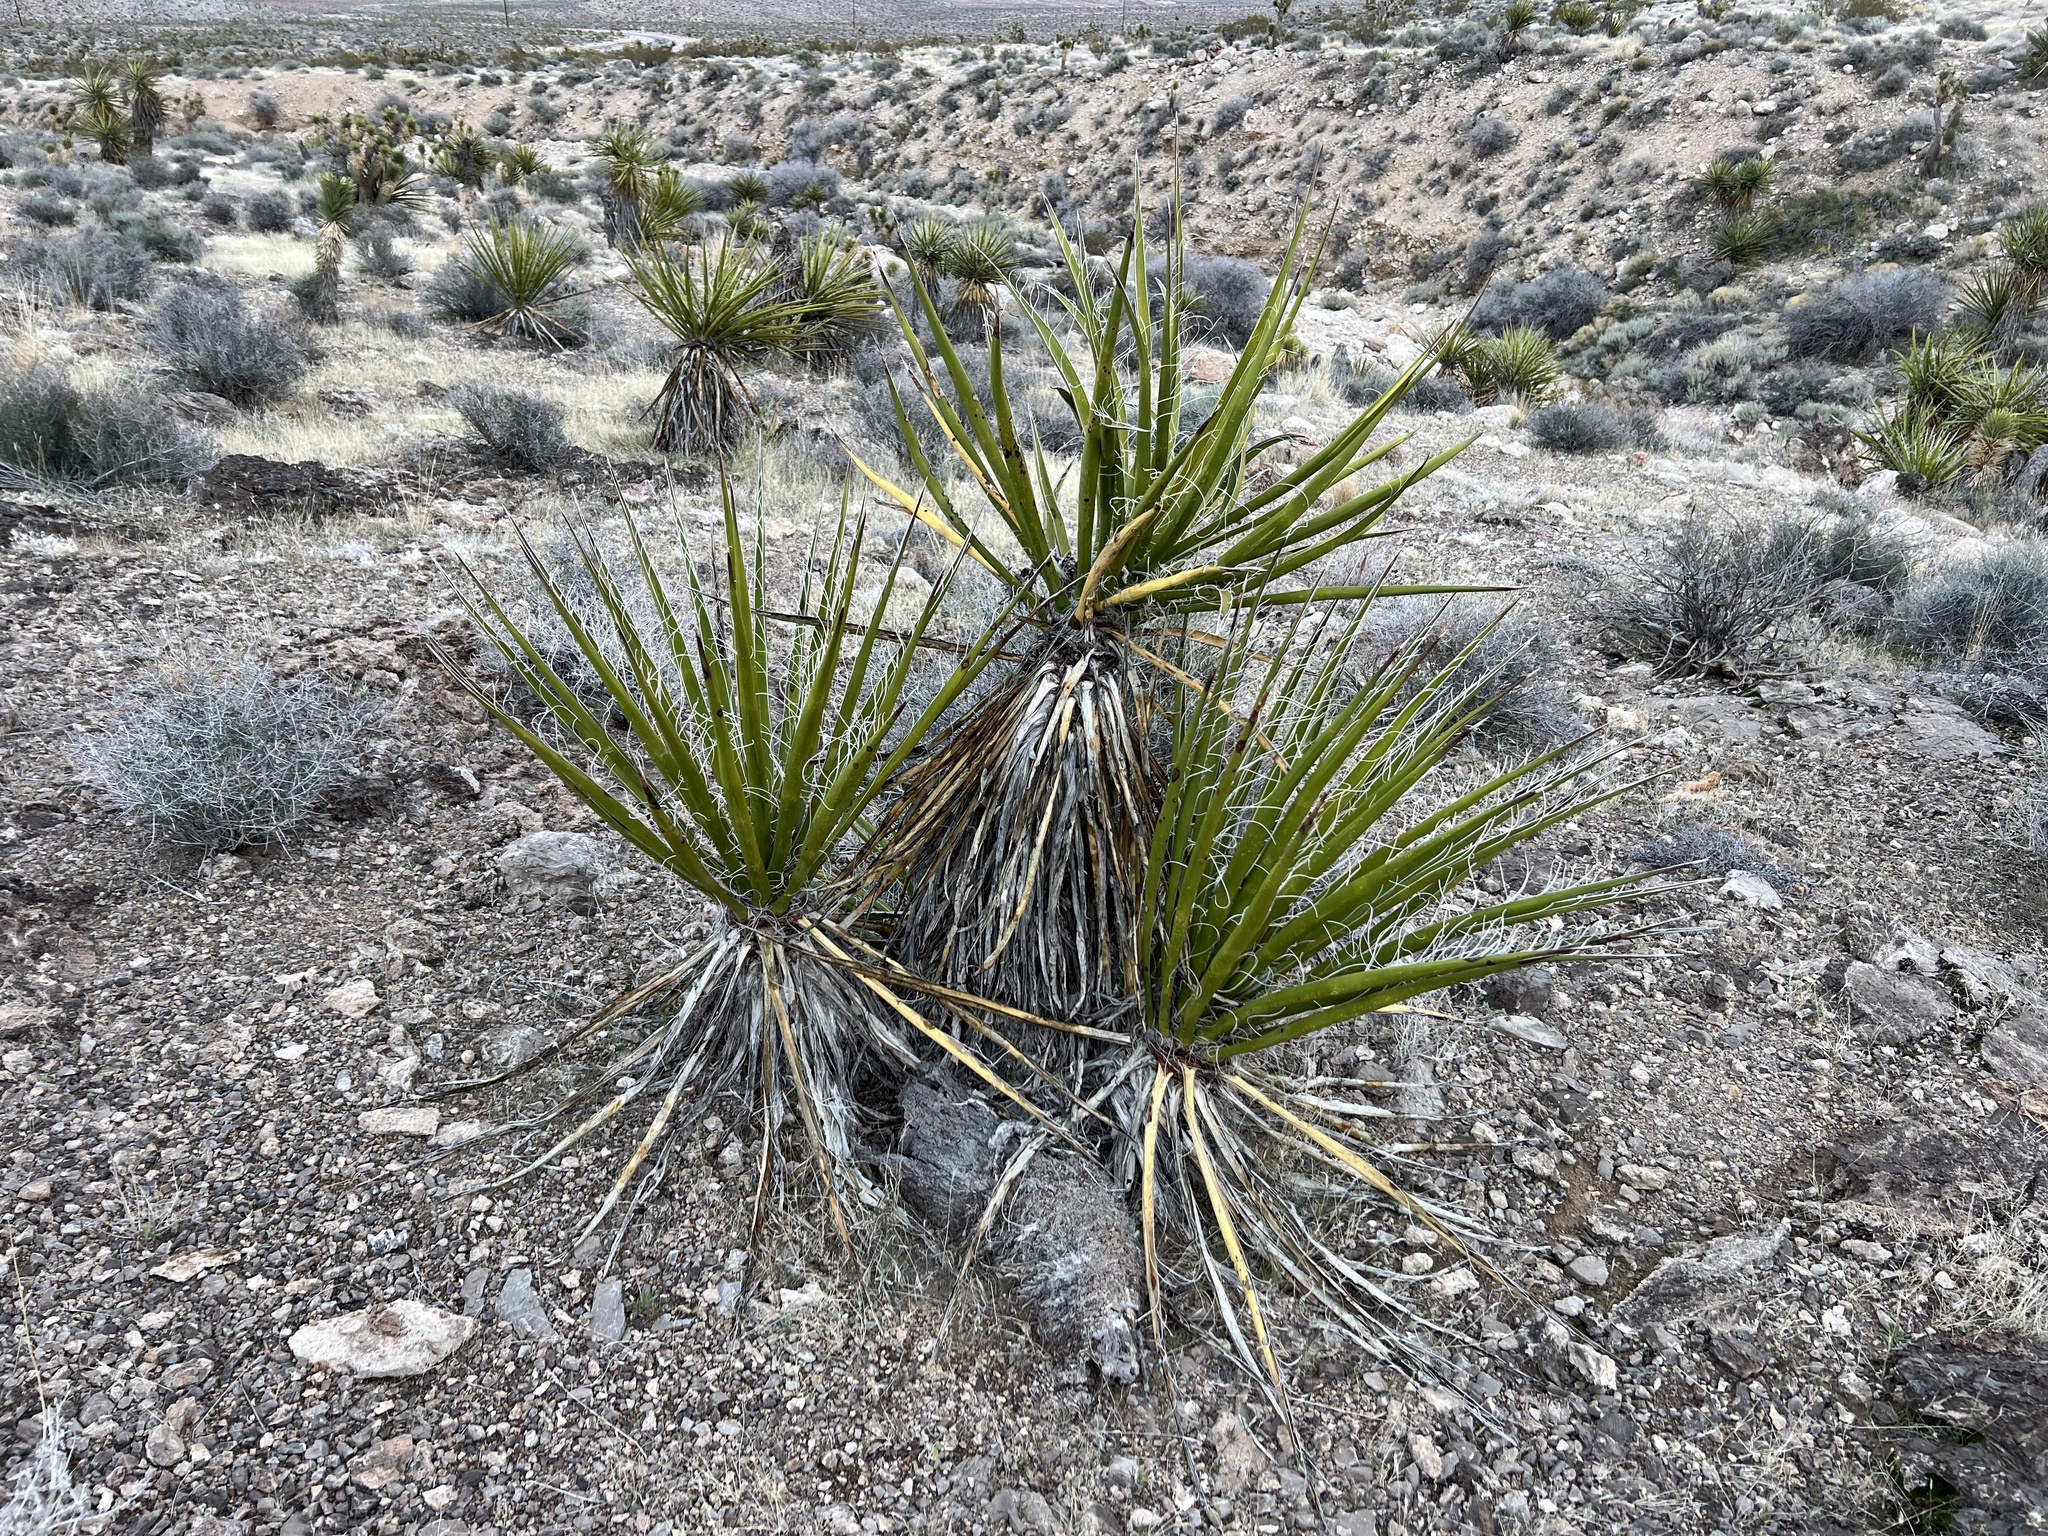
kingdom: Plantae
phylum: Tracheophyta
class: Liliopsida
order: Asparagales
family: Asparagaceae
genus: Yucca
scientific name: Yucca schidigera
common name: Mojave yucca
